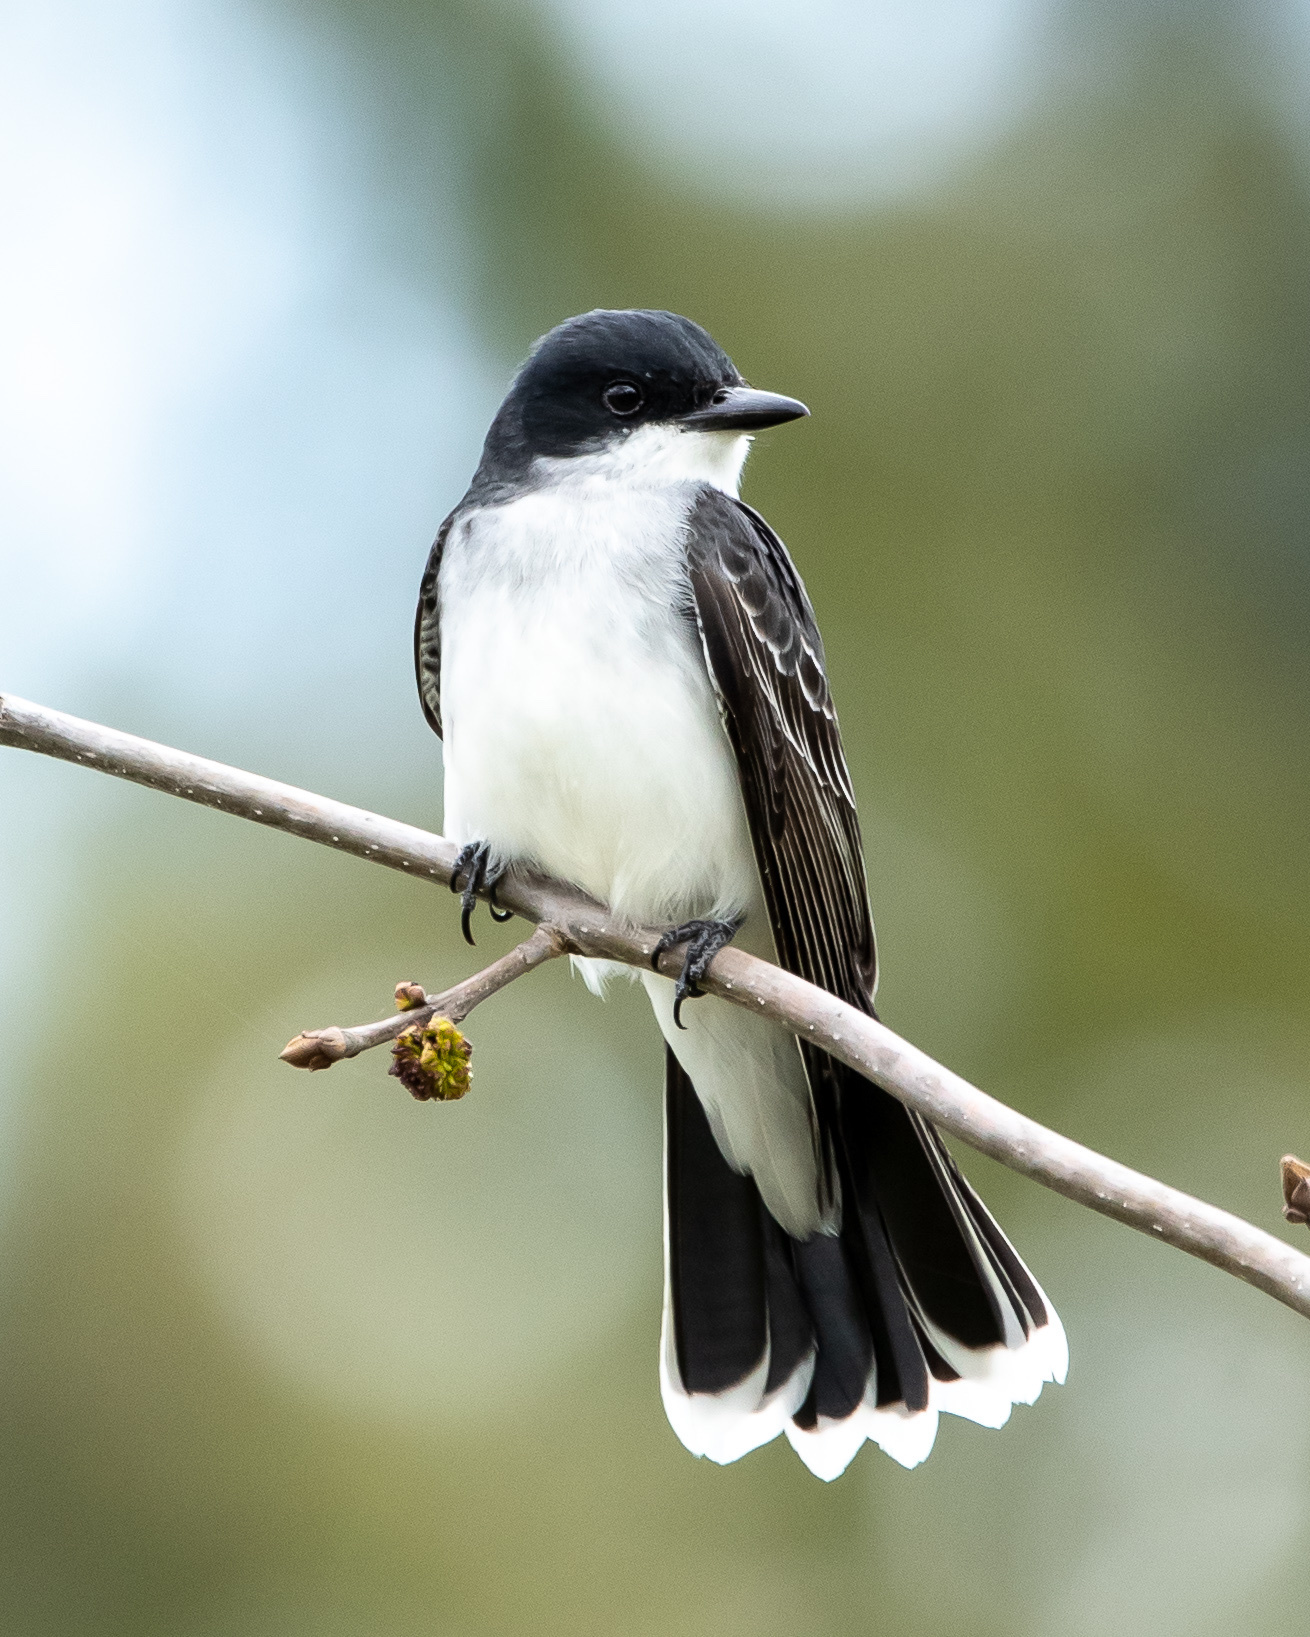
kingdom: Animalia
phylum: Chordata
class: Aves
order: Passeriformes
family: Tyrannidae
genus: Tyrannus
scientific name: Tyrannus tyrannus
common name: Eastern kingbird
